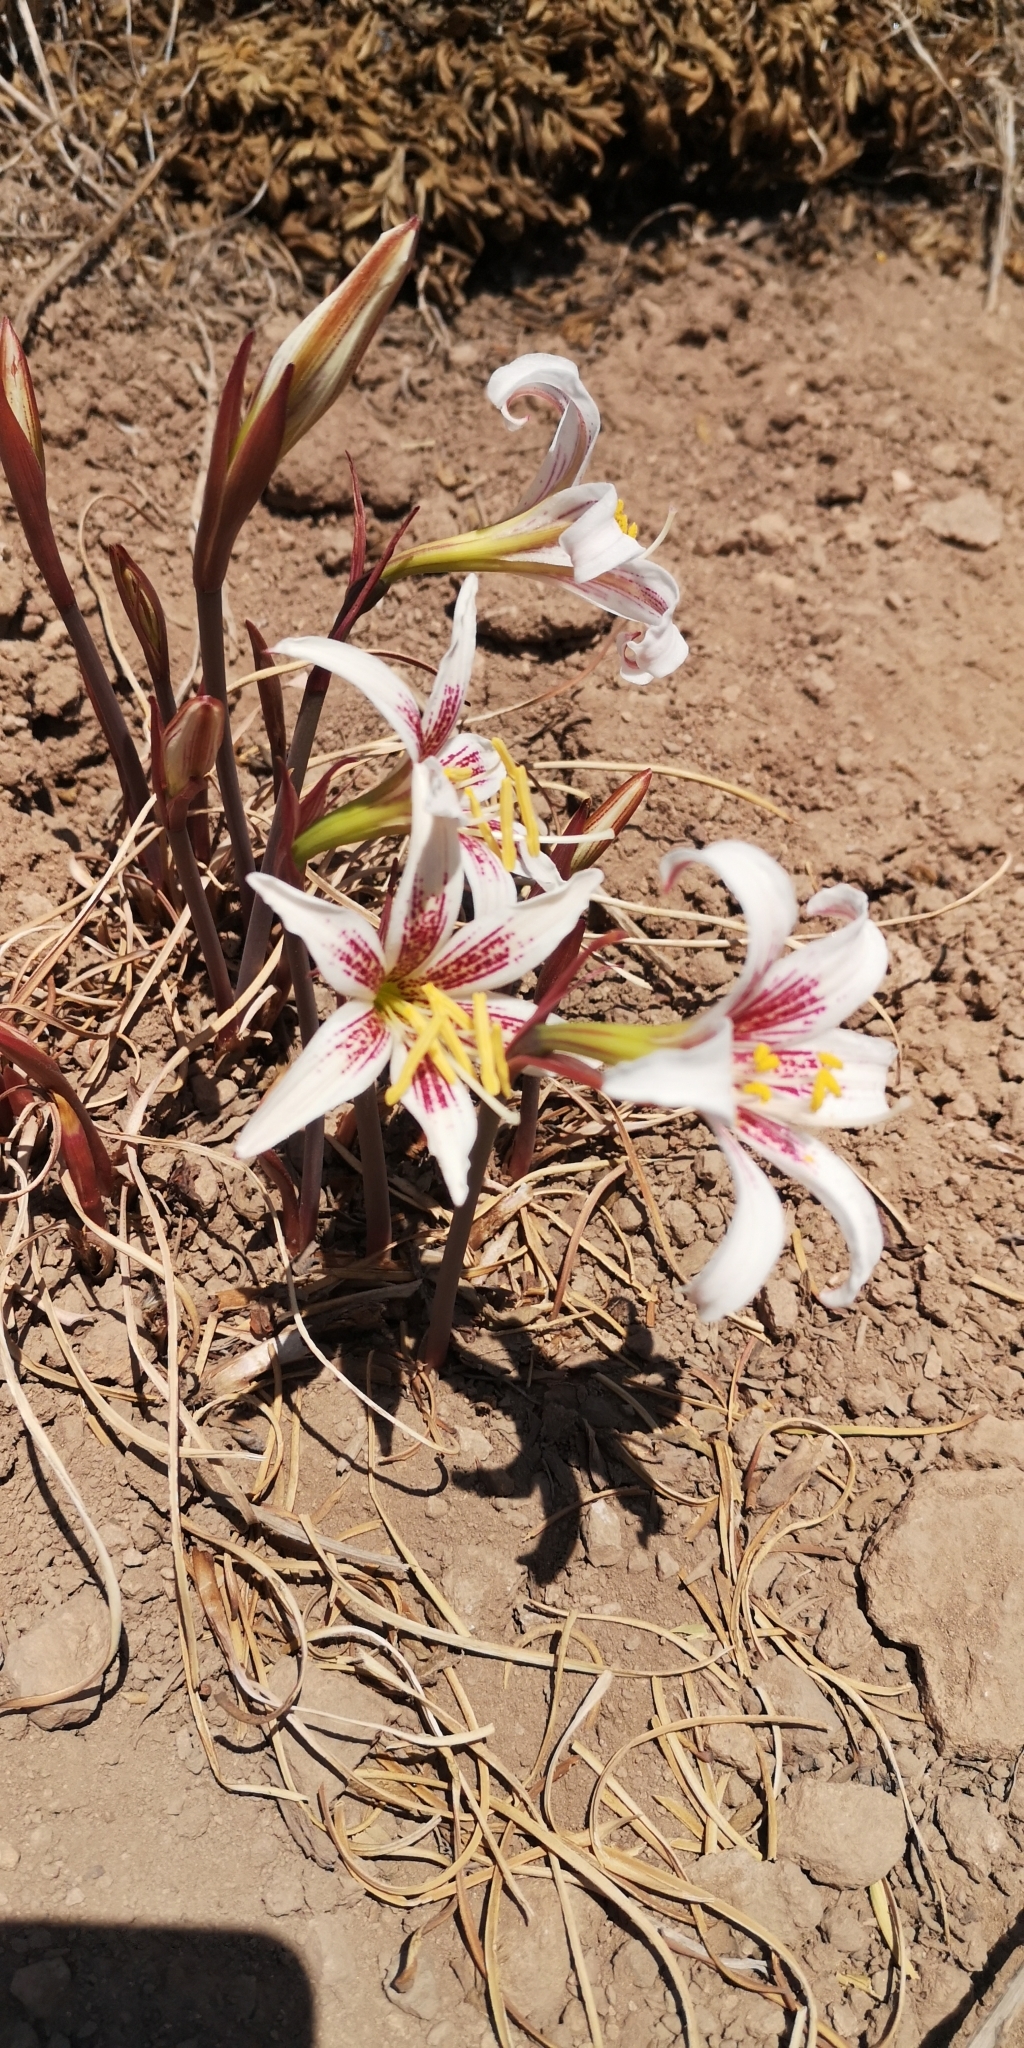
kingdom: Plantae
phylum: Tracheophyta
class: Liliopsida
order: Asparagales
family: Amaryllidaceae
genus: Rhodolirium
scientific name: Rhodolirium montanum
